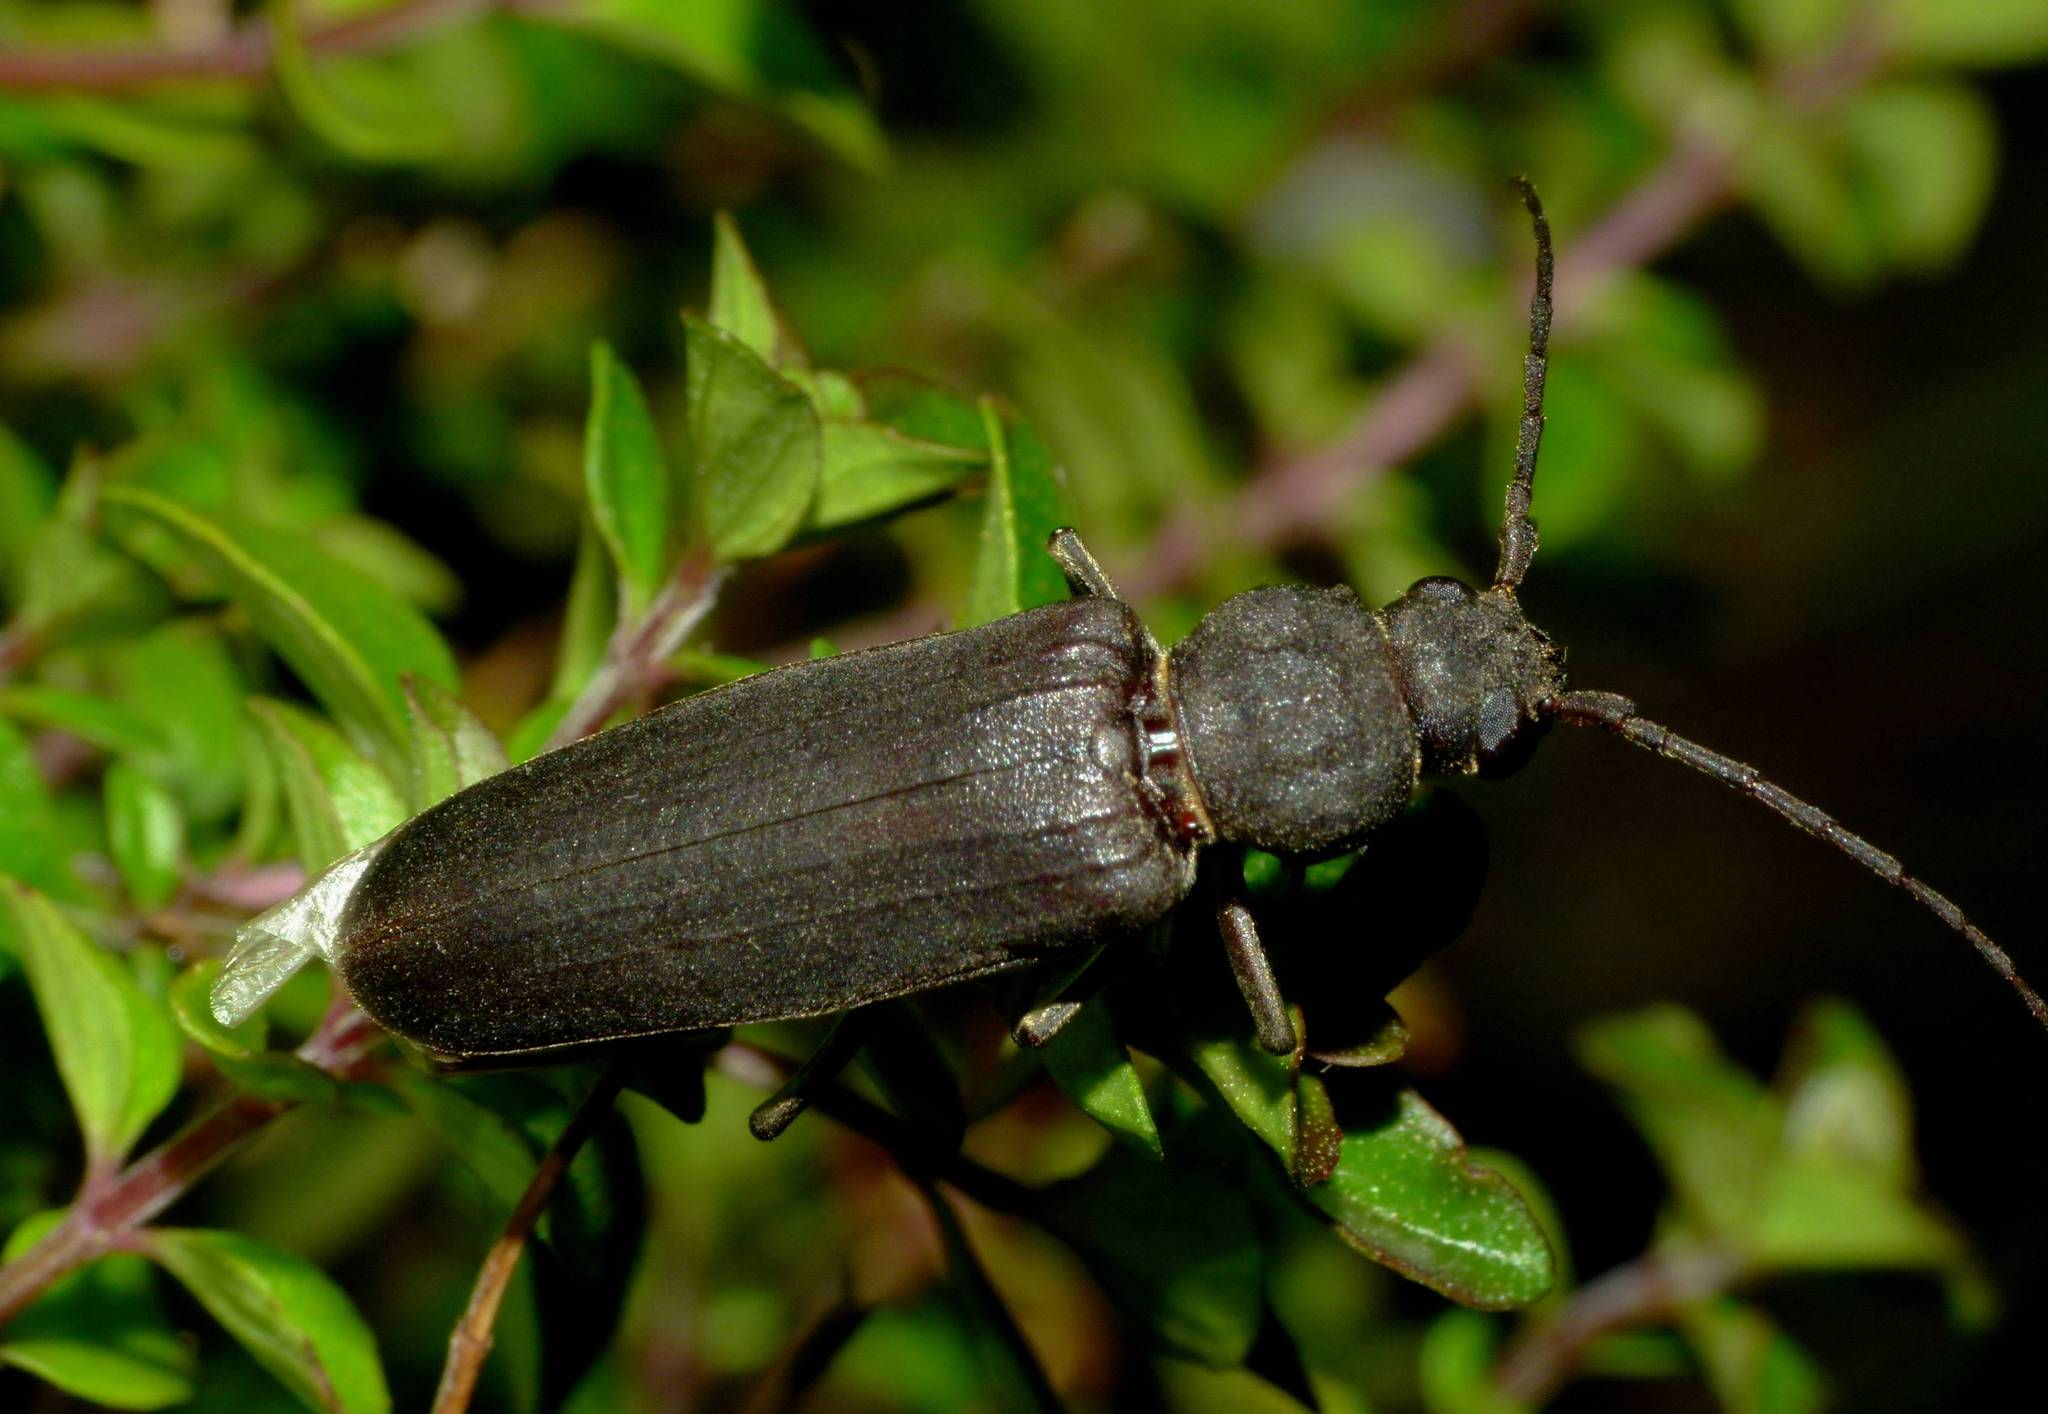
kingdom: Animalia
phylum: Arthropoda
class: Insecta
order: Coleoptera
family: Cerambycidae
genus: Arhopalus
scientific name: Arhopalus ferus
